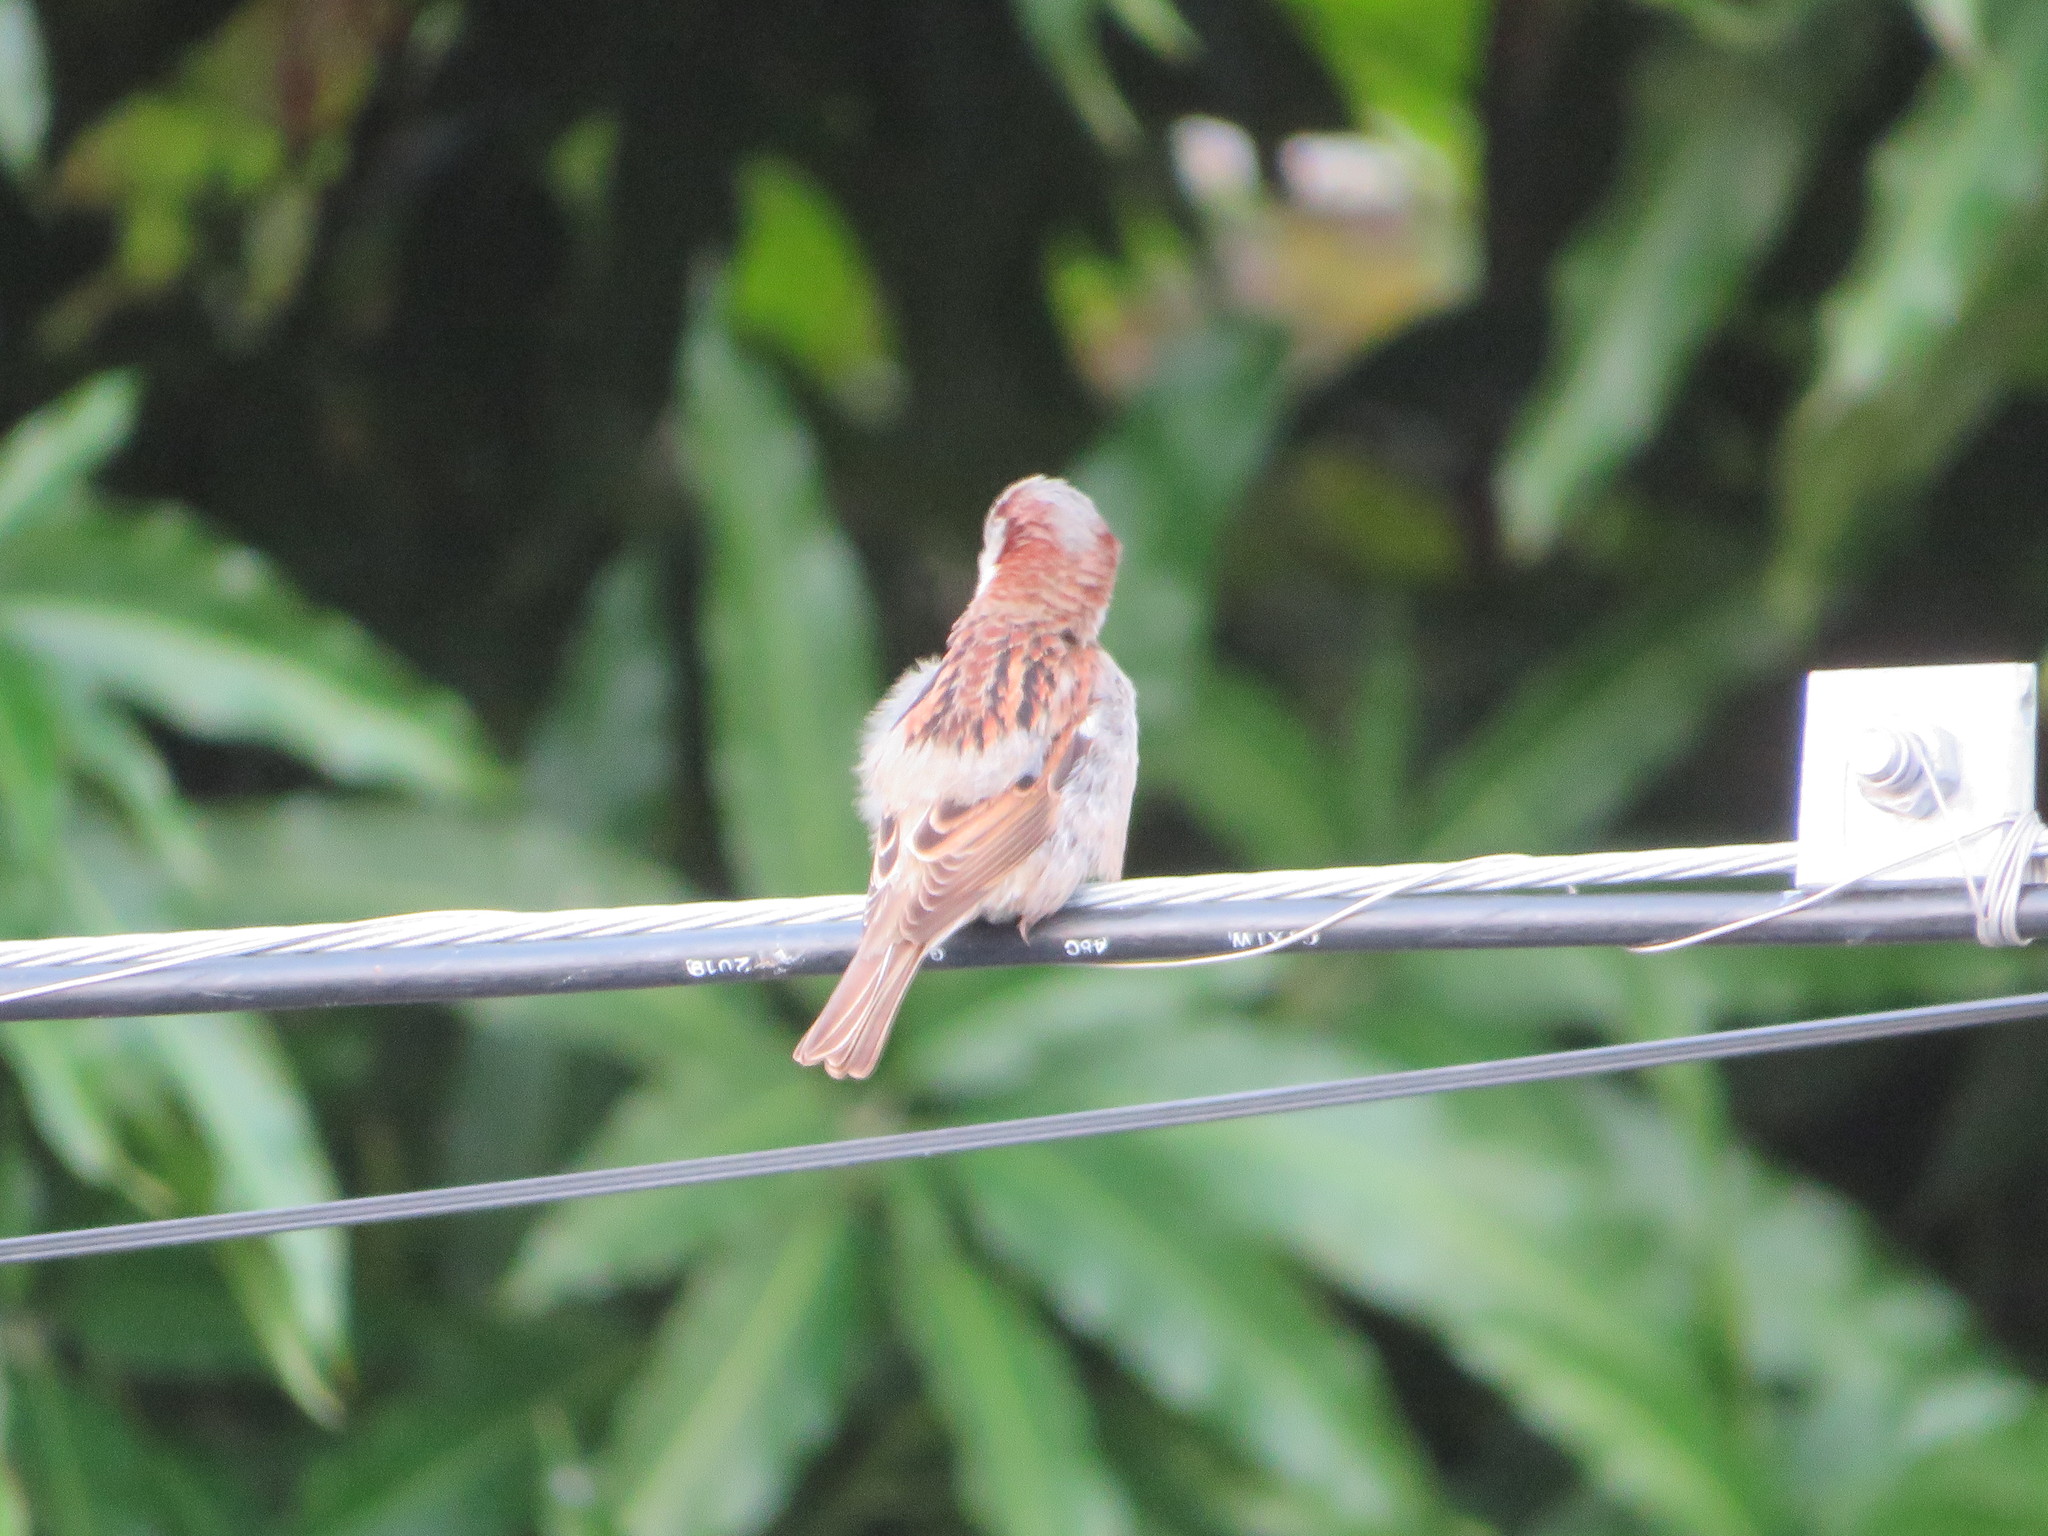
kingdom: Animalia
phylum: Chordata
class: Aves
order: Passeriformes
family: Passeridae
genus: Passer
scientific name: Passer domesticus
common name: House sparrow
